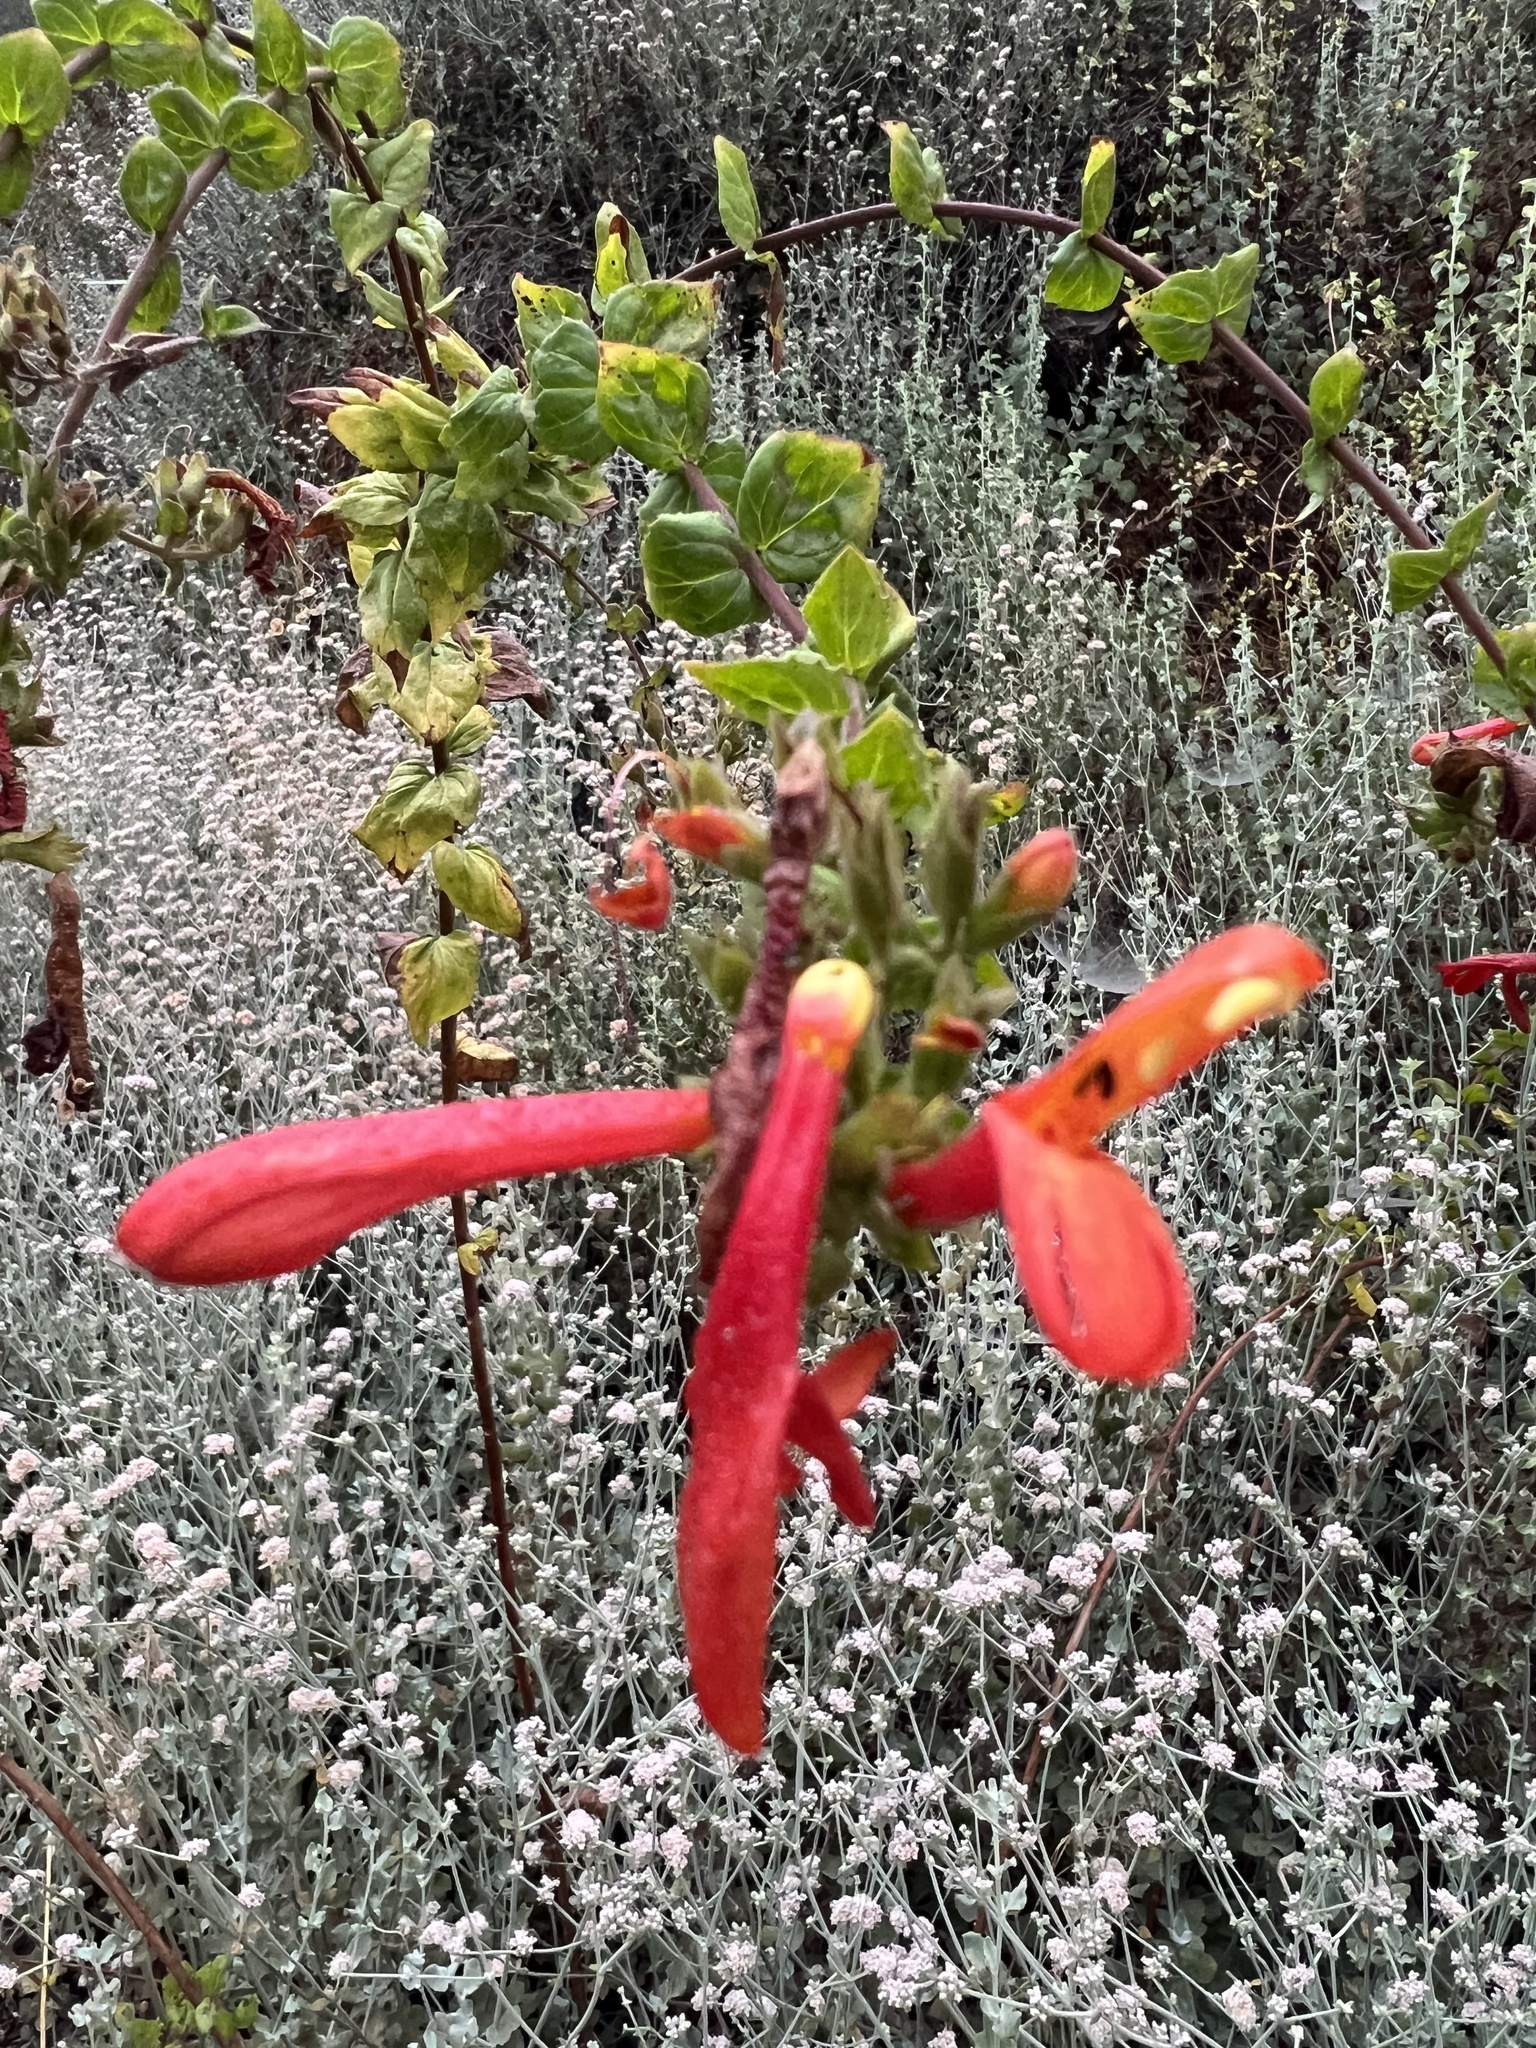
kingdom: Plantae
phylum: Tracheophyta
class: Magnoliopsida
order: Lamiales
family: Plantaginaceae
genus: Keckiella
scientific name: Keckiella cordifolia
